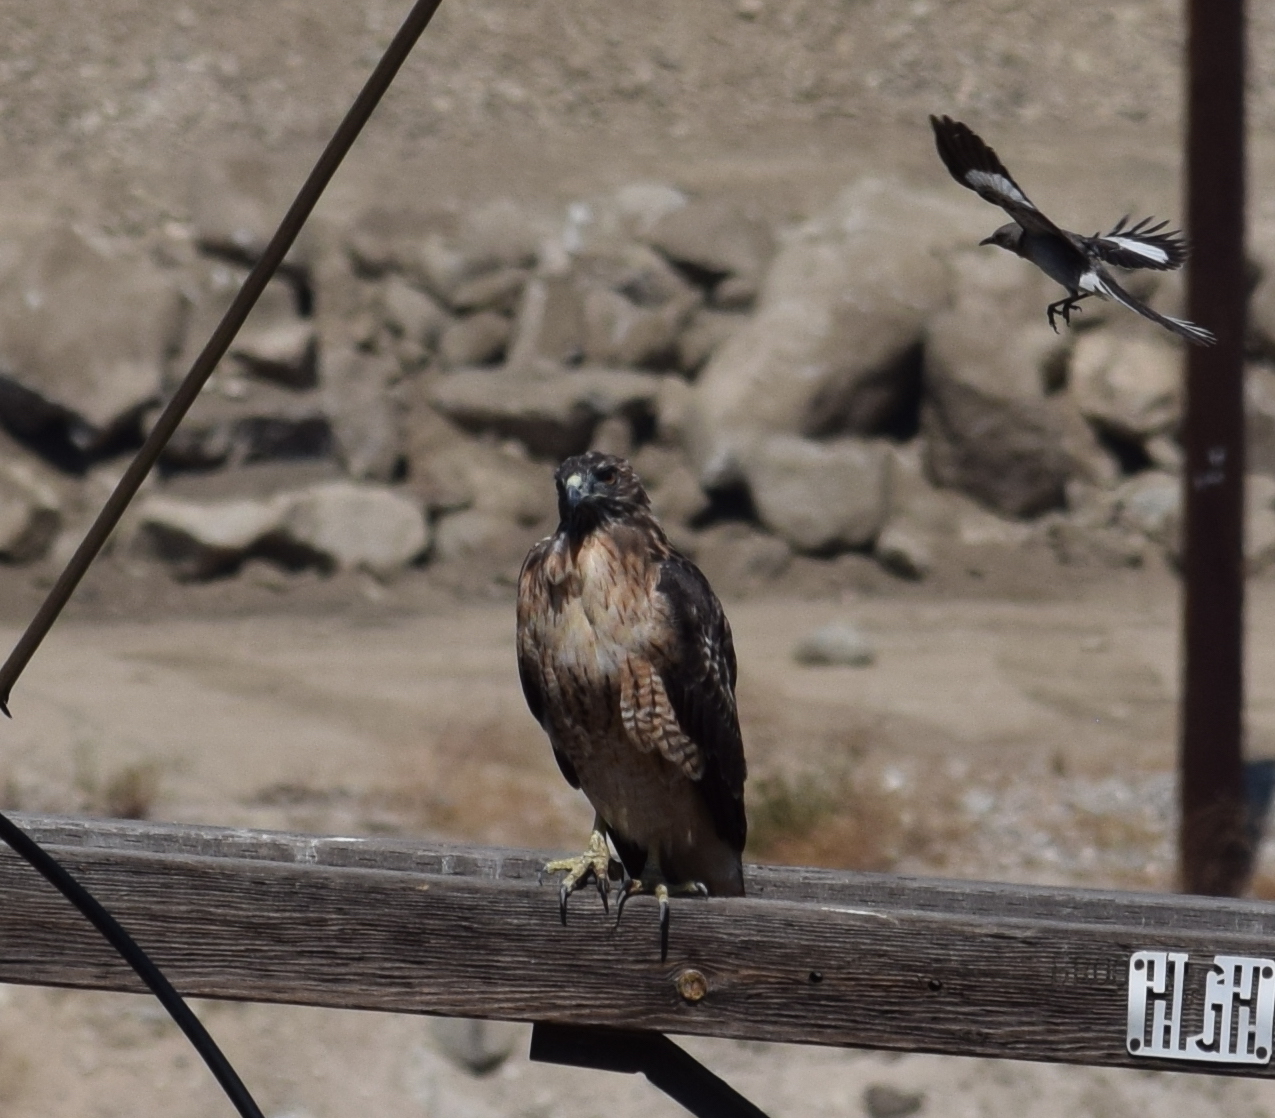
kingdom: Animalia
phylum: Chordata
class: Aves
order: Accipitriformes
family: Accipitridae
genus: Buteo
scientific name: Buteo jamaicensis
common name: Red-tailed hawk
